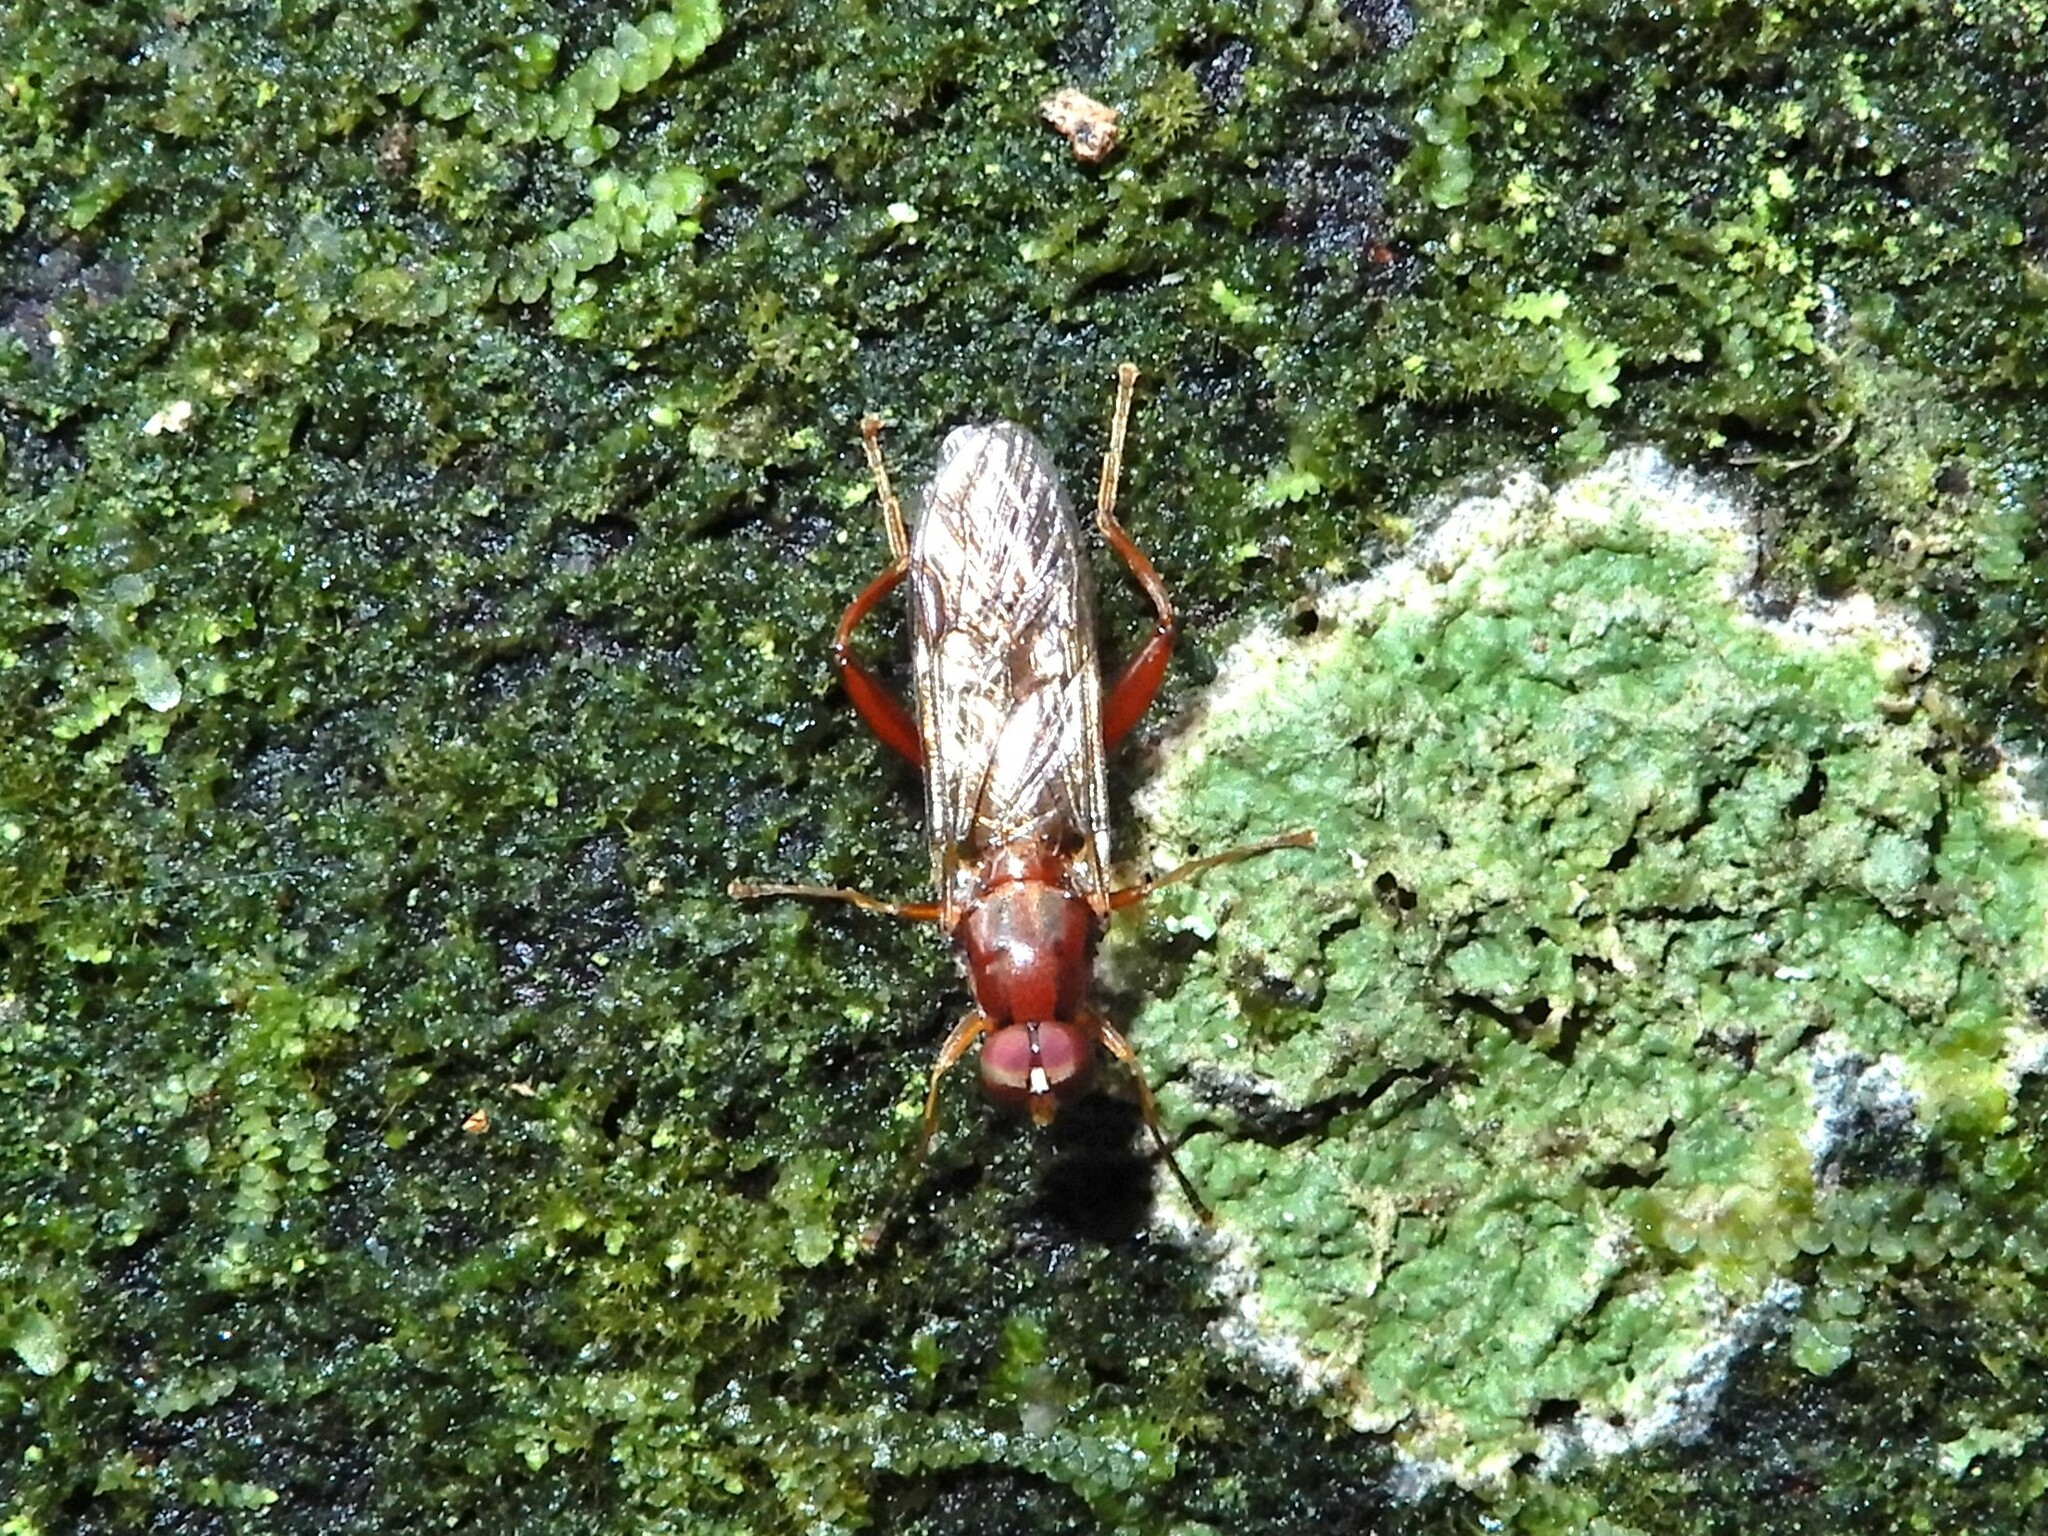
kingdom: Animalia
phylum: Arthropoda
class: Insecta
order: Diptera
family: Stratiomyidae
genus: Benhamyia
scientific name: Benhamyia straznitzkii
